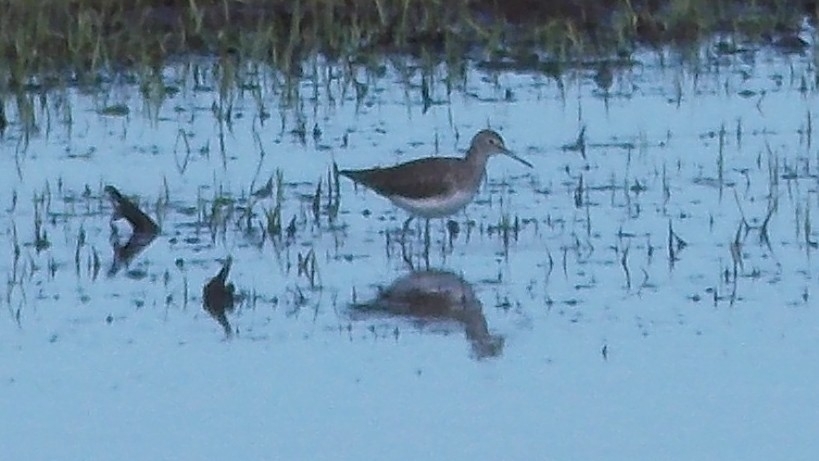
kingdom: Animalia
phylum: Chordata
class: Aves
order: Charadriiformes
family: Scolopacidae
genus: Tringa
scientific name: Tringa ochropus
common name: Green sandpiper
